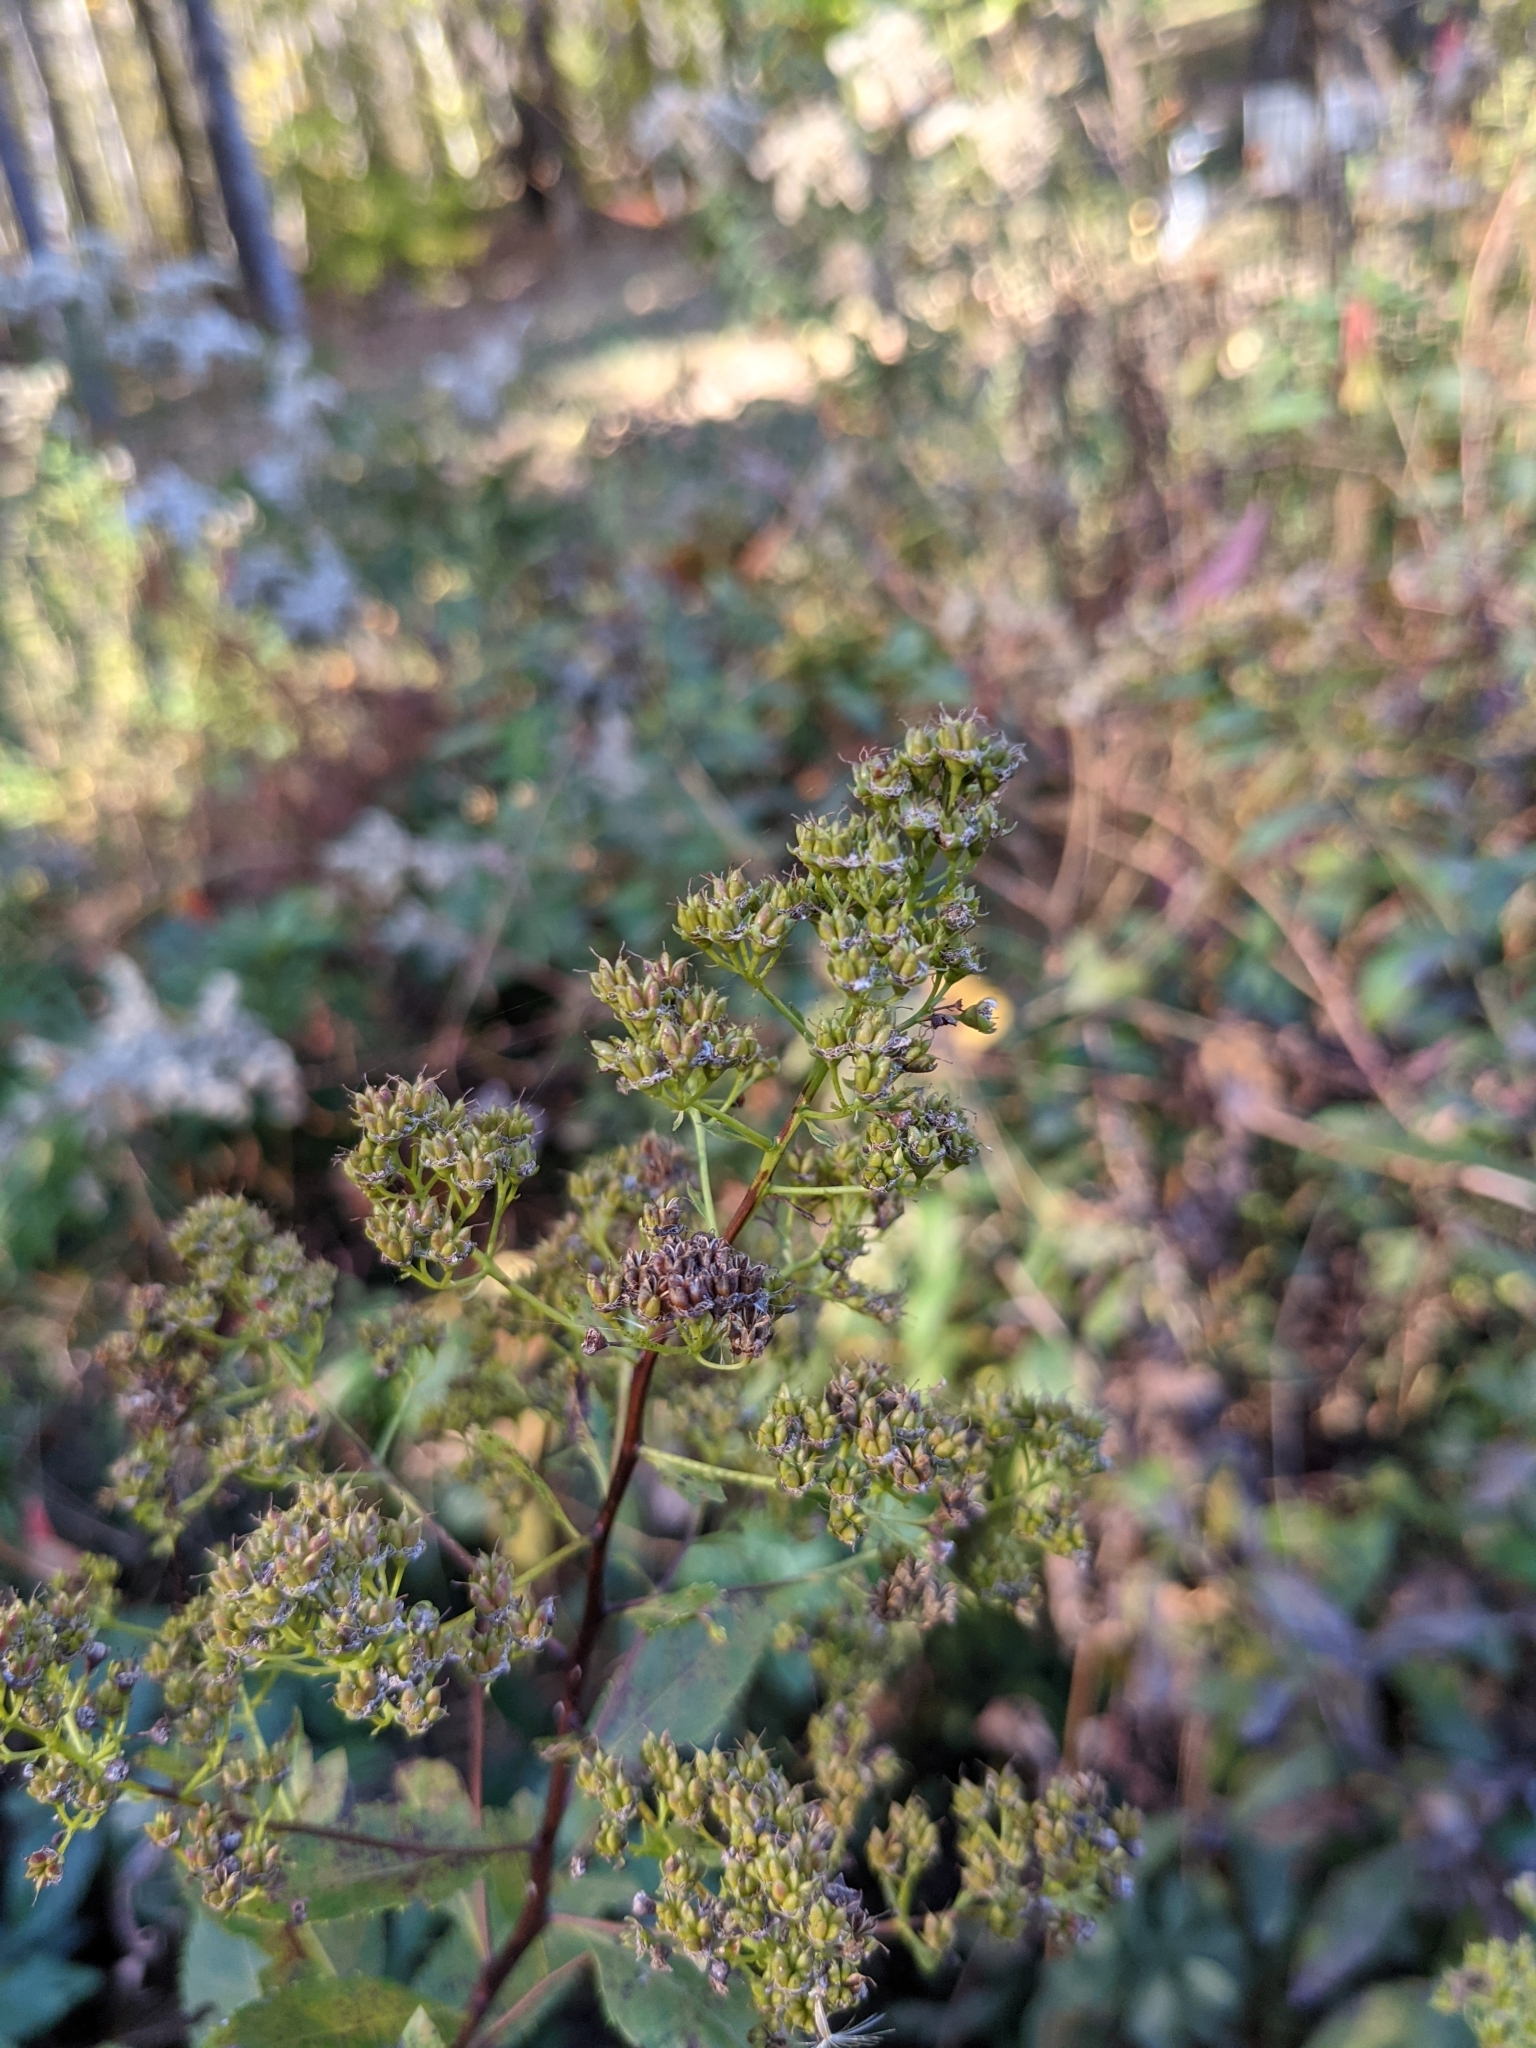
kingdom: Plantae
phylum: Tracheophyta
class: Magnoliopsida
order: Rosales
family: Rosaceae
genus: Spiraea
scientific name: Spiraea alba
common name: Pale bridewort
